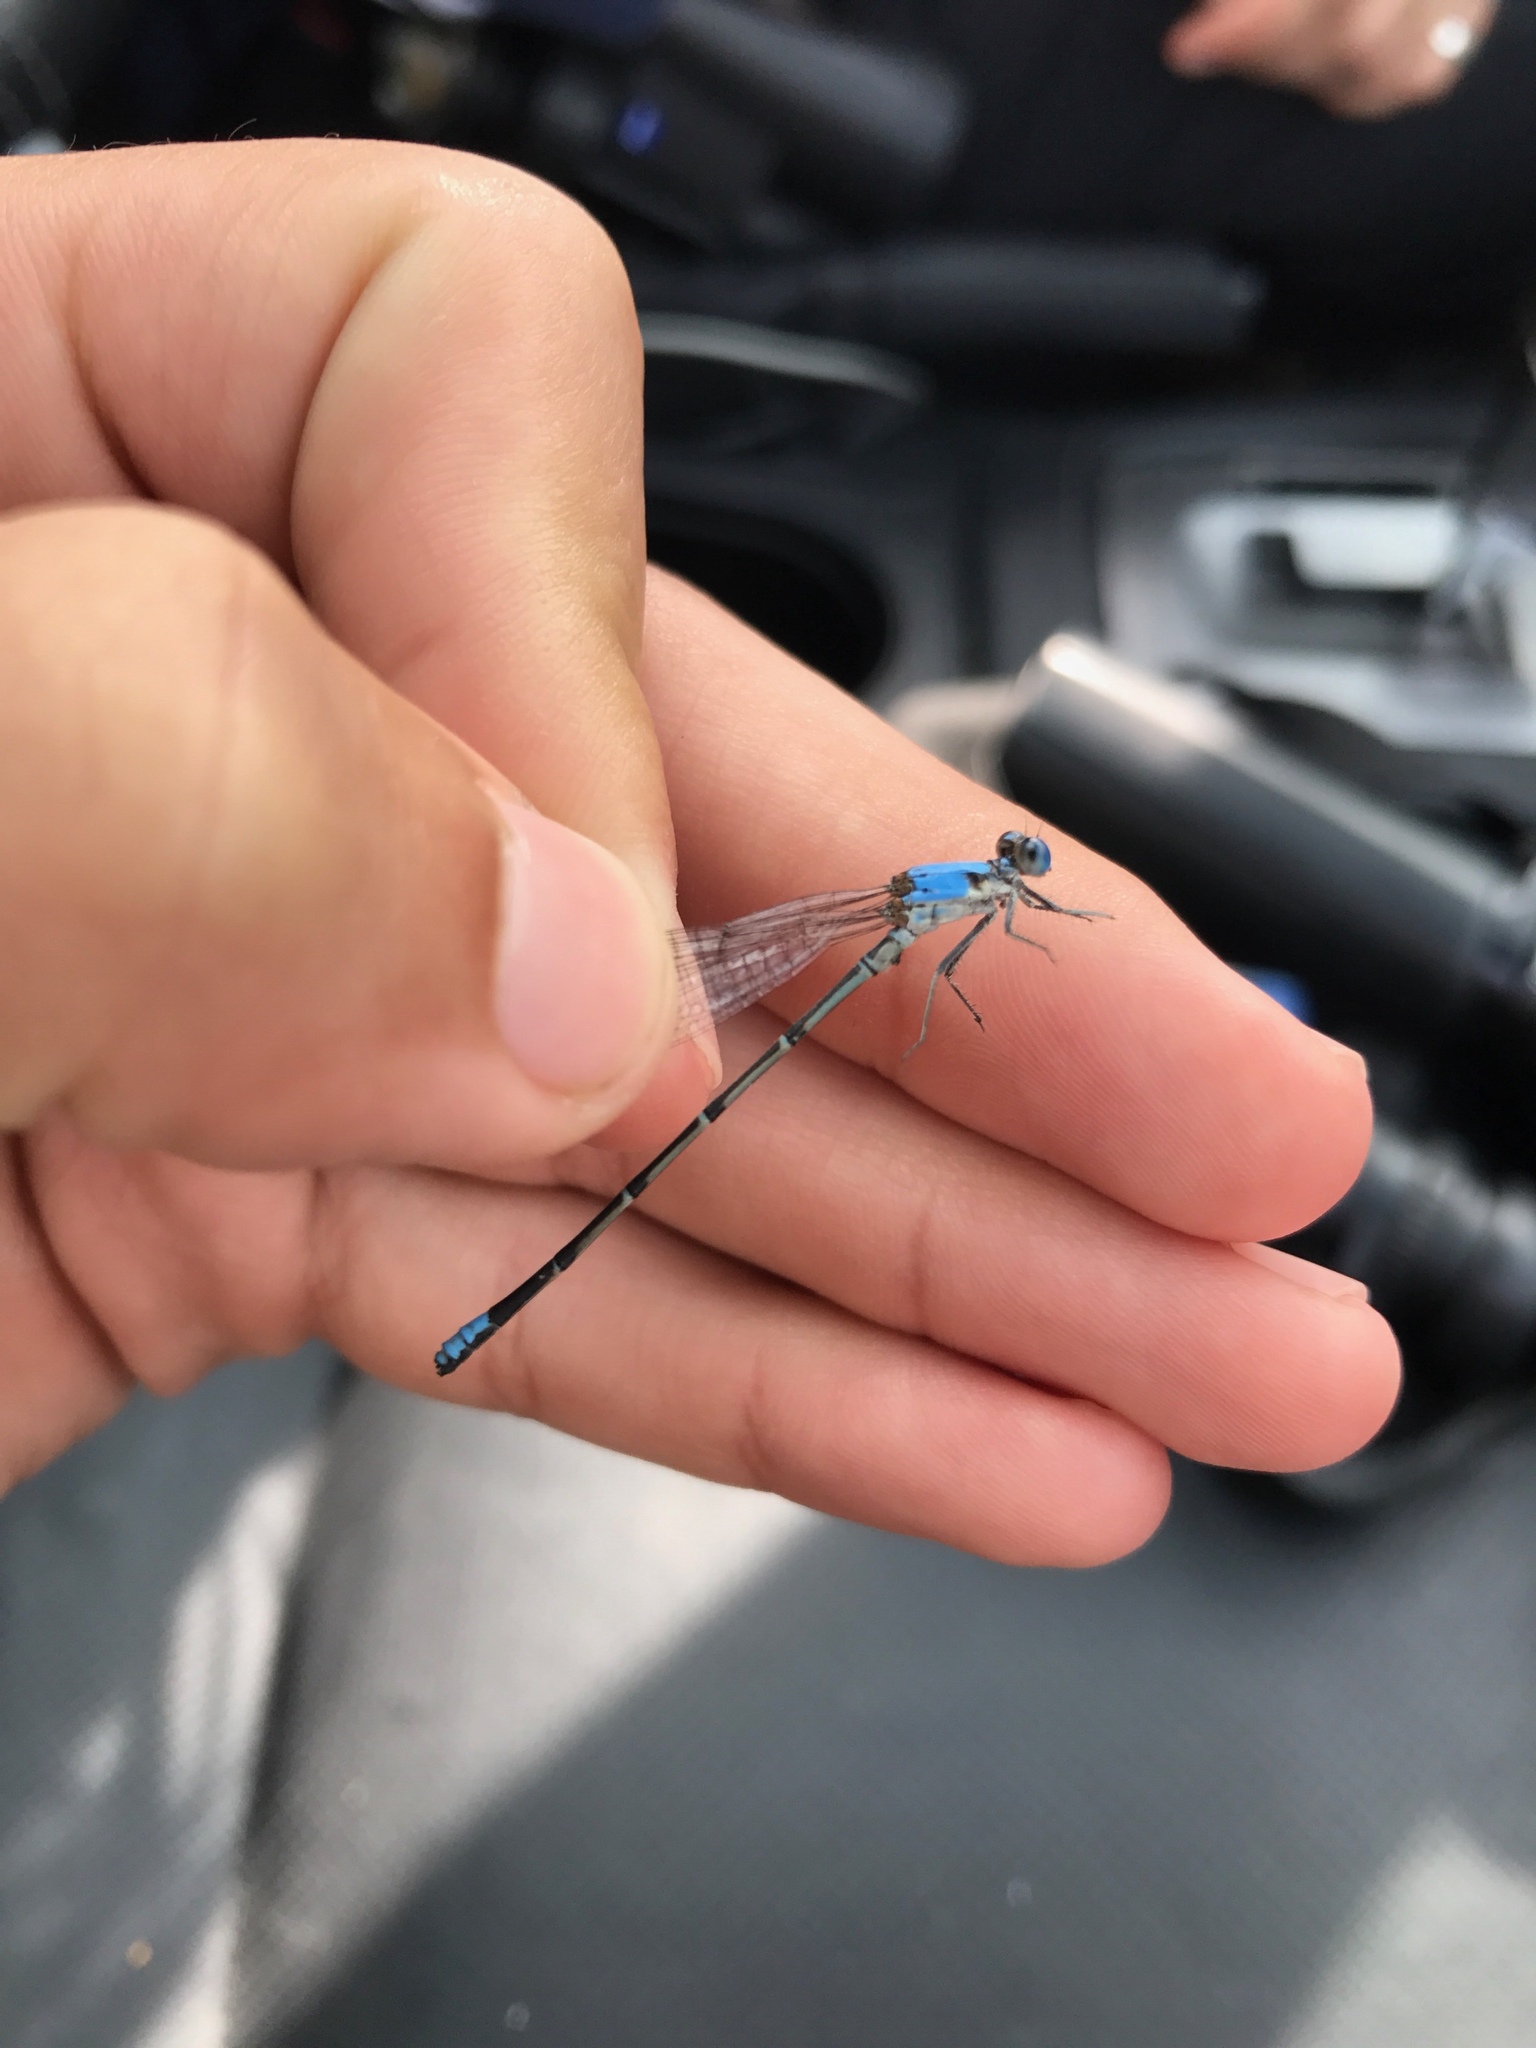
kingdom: Animalia
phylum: Arthropoda
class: Insecta
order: Odonata
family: Coenagrionidae
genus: Argia
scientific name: Argia apicalis
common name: Blue-fronted dancer
